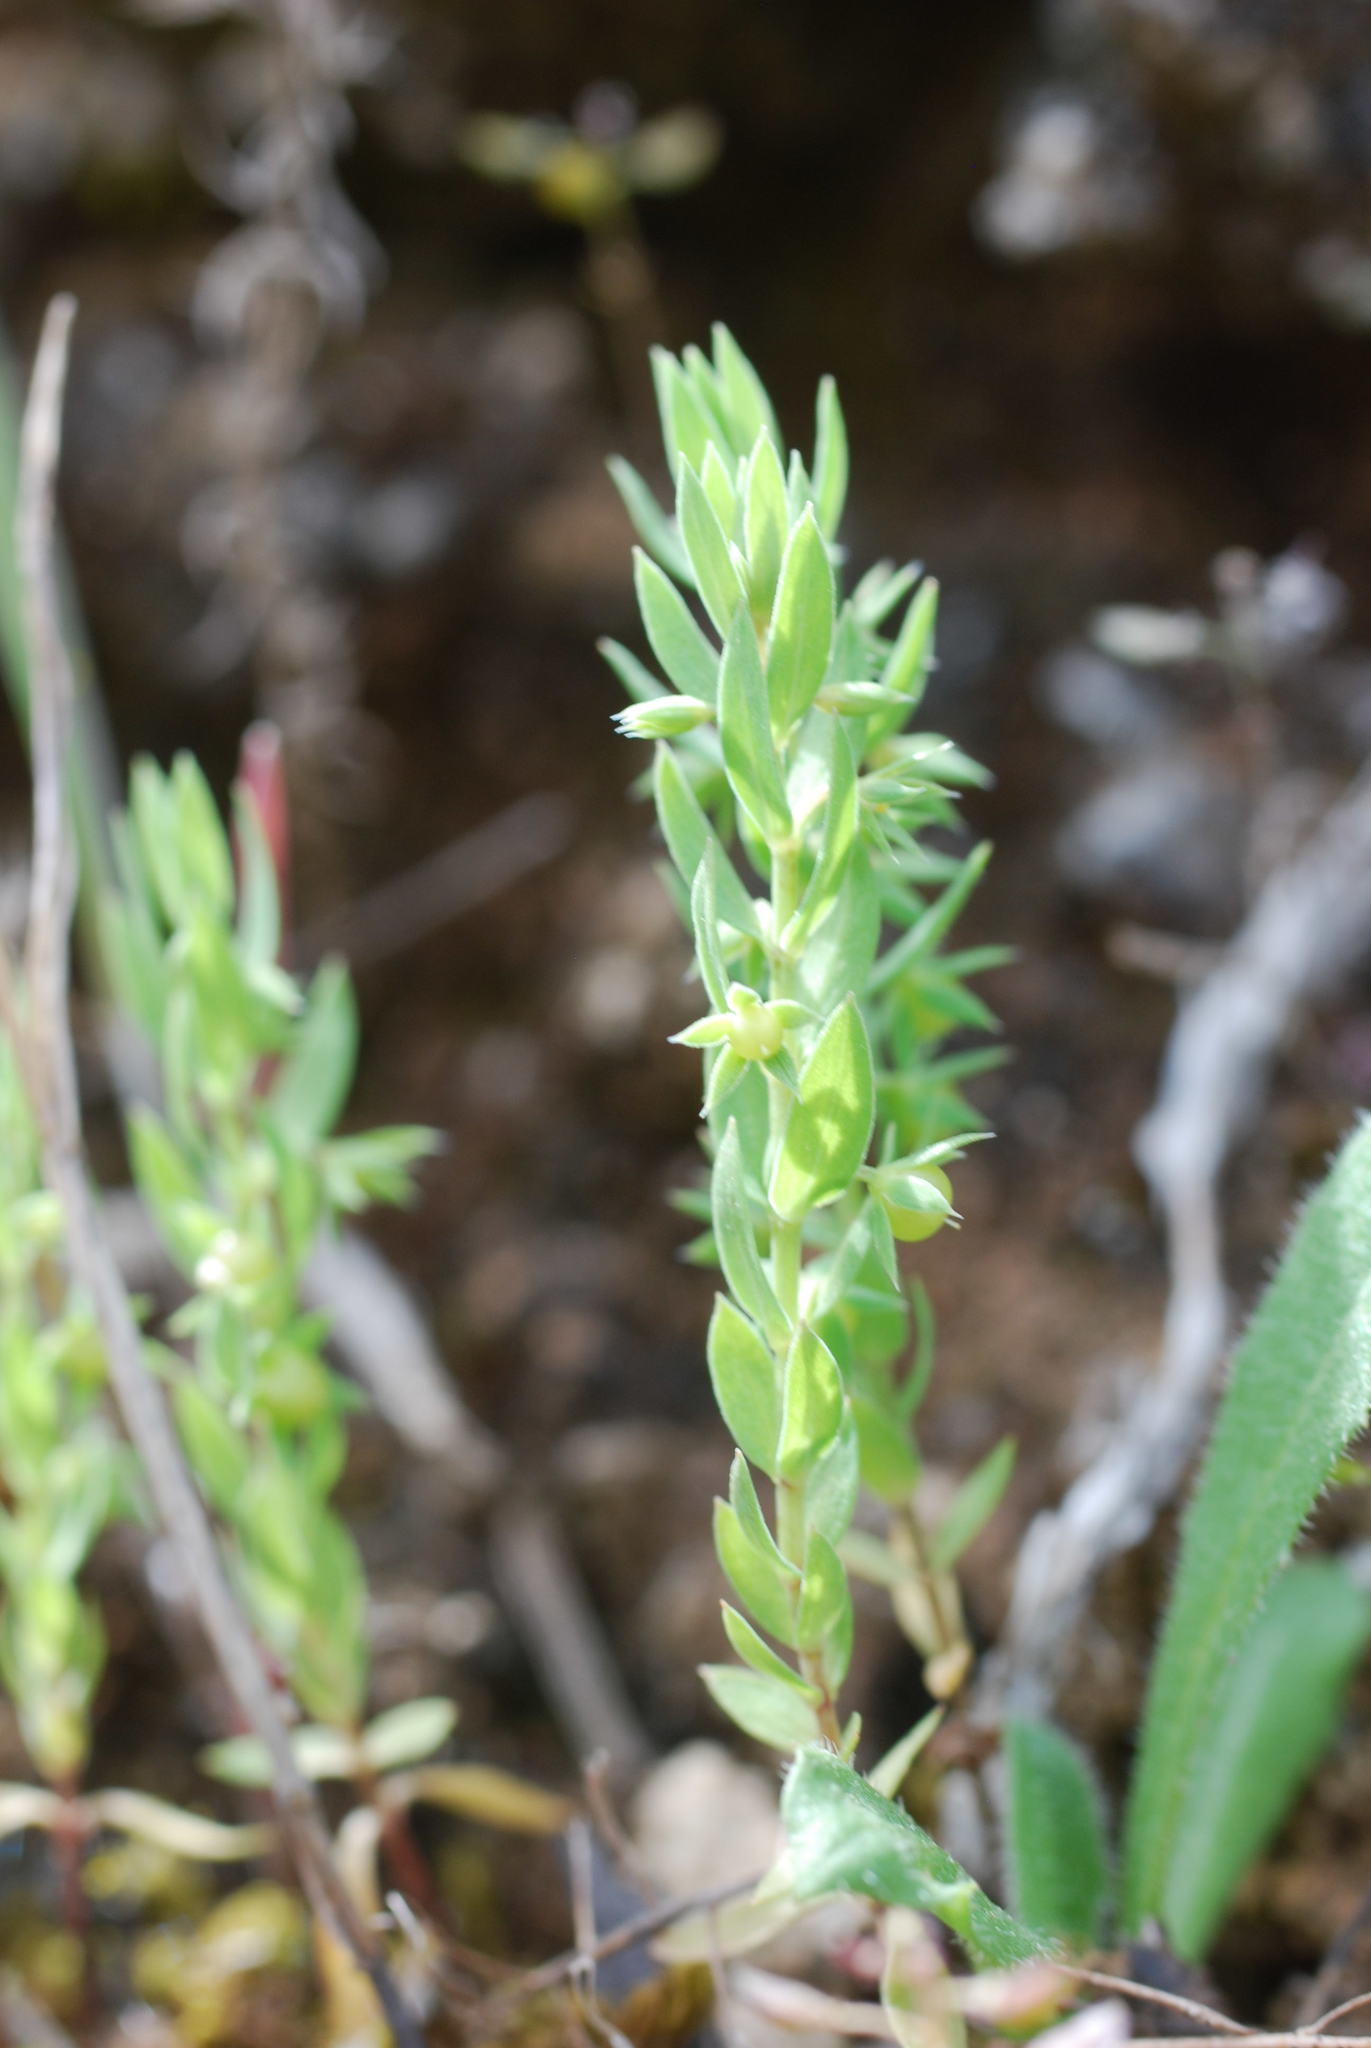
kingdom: Plantae
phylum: Tracheophyta
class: Magnoliopsida
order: Ericales
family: Primulaceae
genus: Lysimachia
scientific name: Lysimachia linum-stellatum
